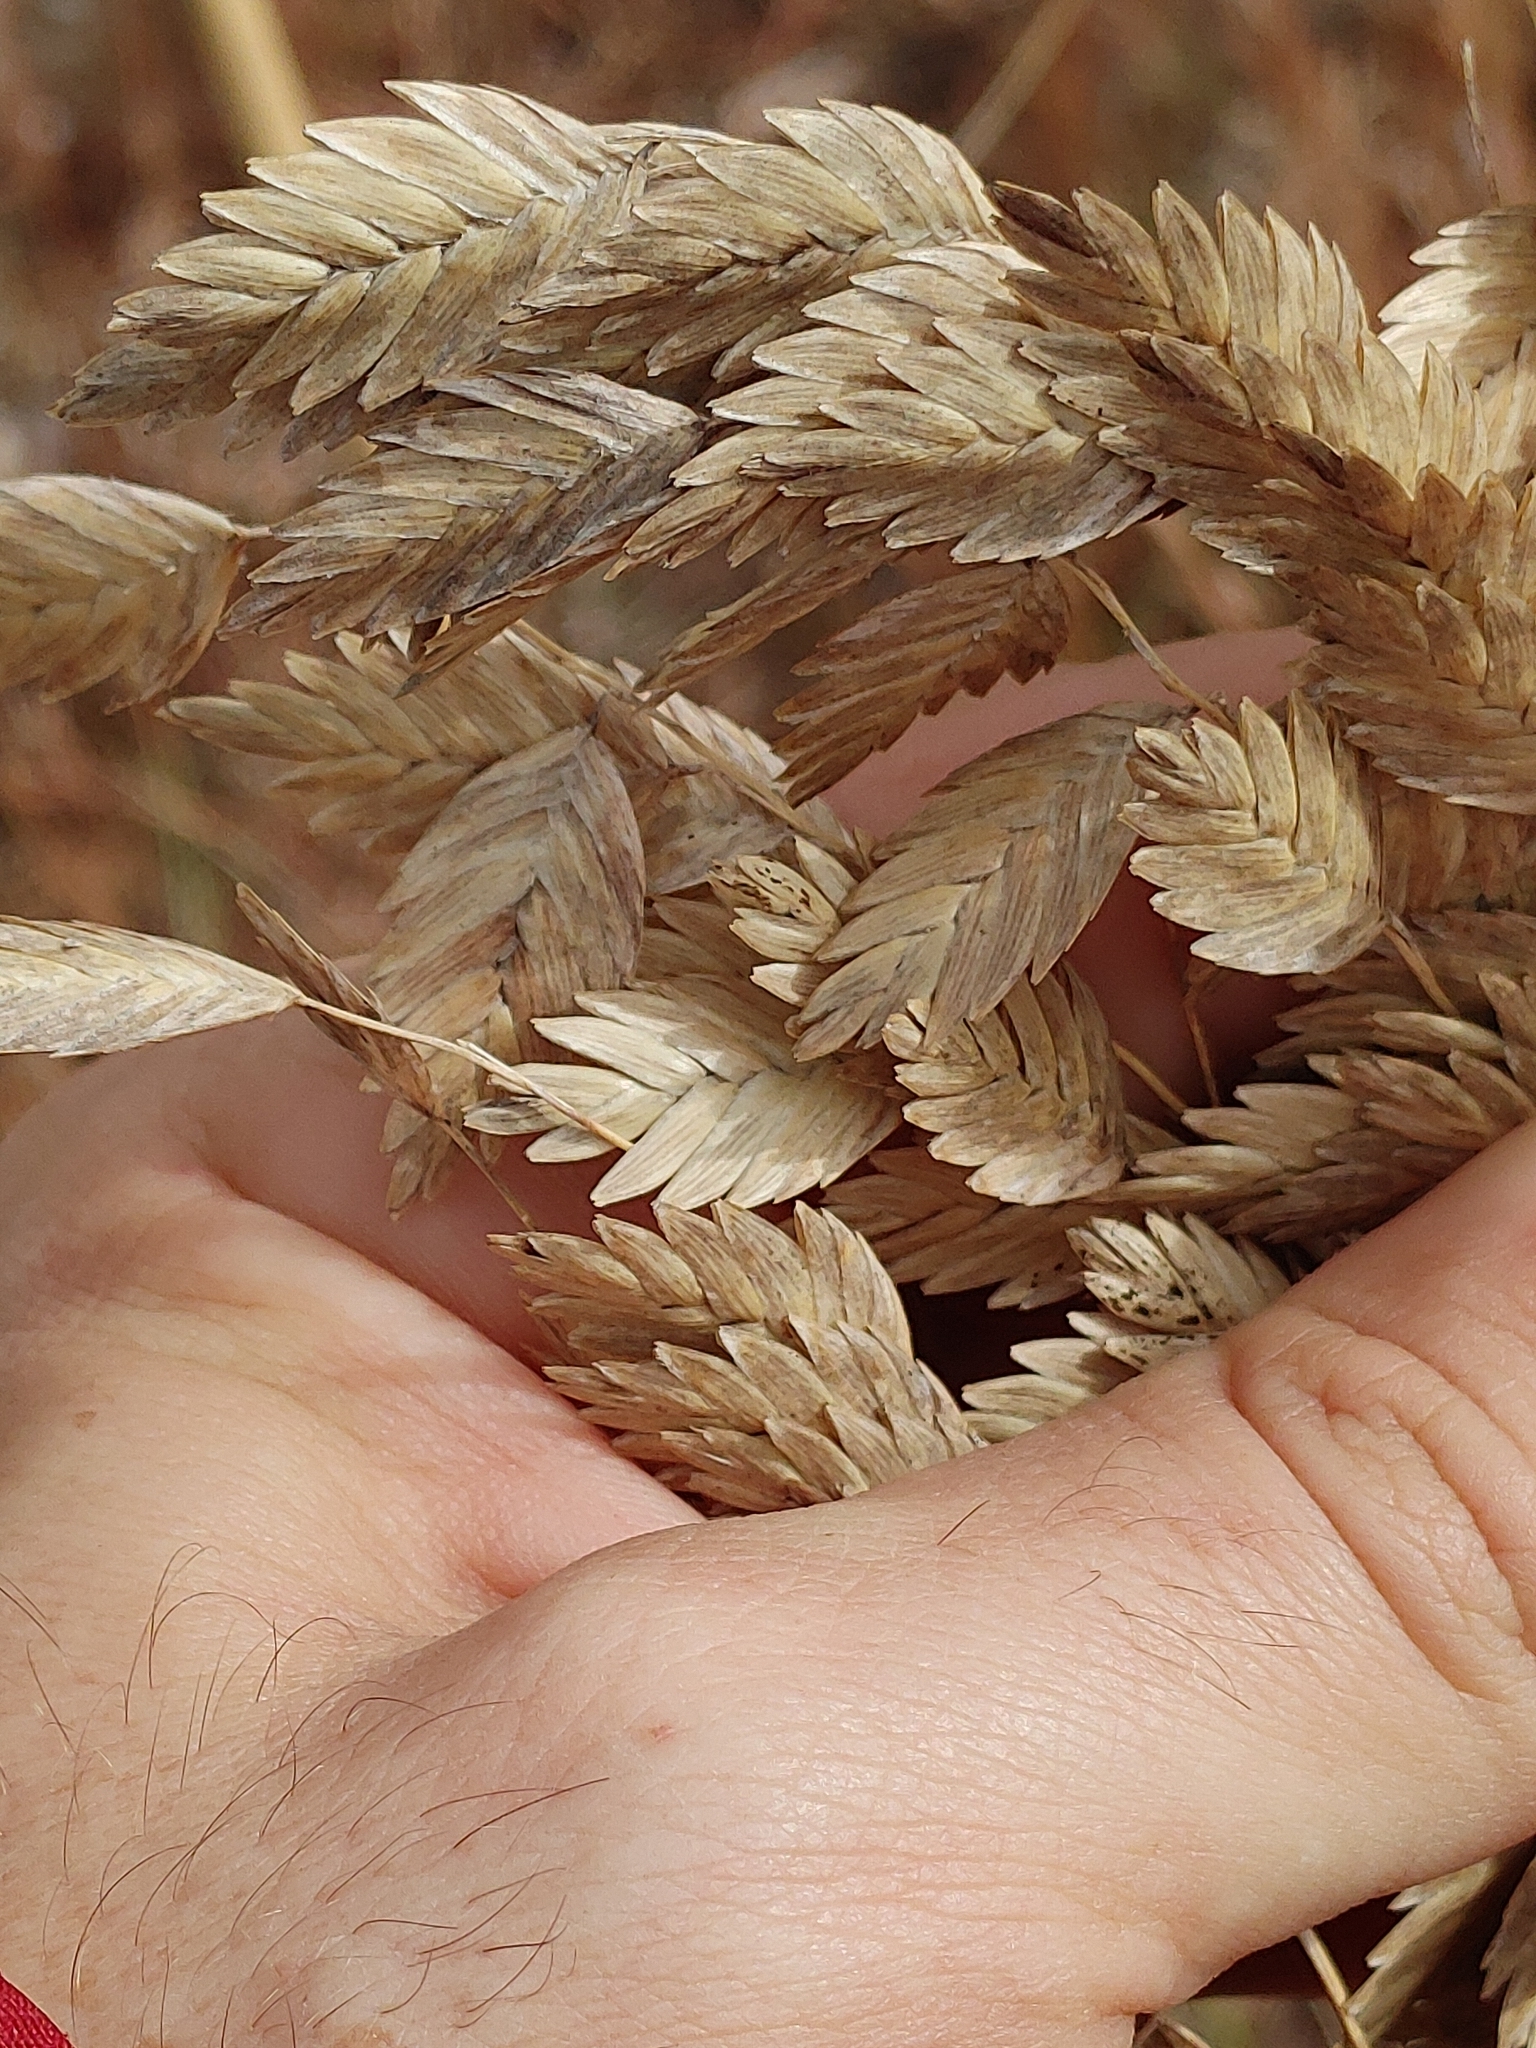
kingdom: Plantae
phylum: Tracheophyta
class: Liliopsida
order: Poales
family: Poaceae
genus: Uniola
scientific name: Uniola paniculata
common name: Seaside-oats
